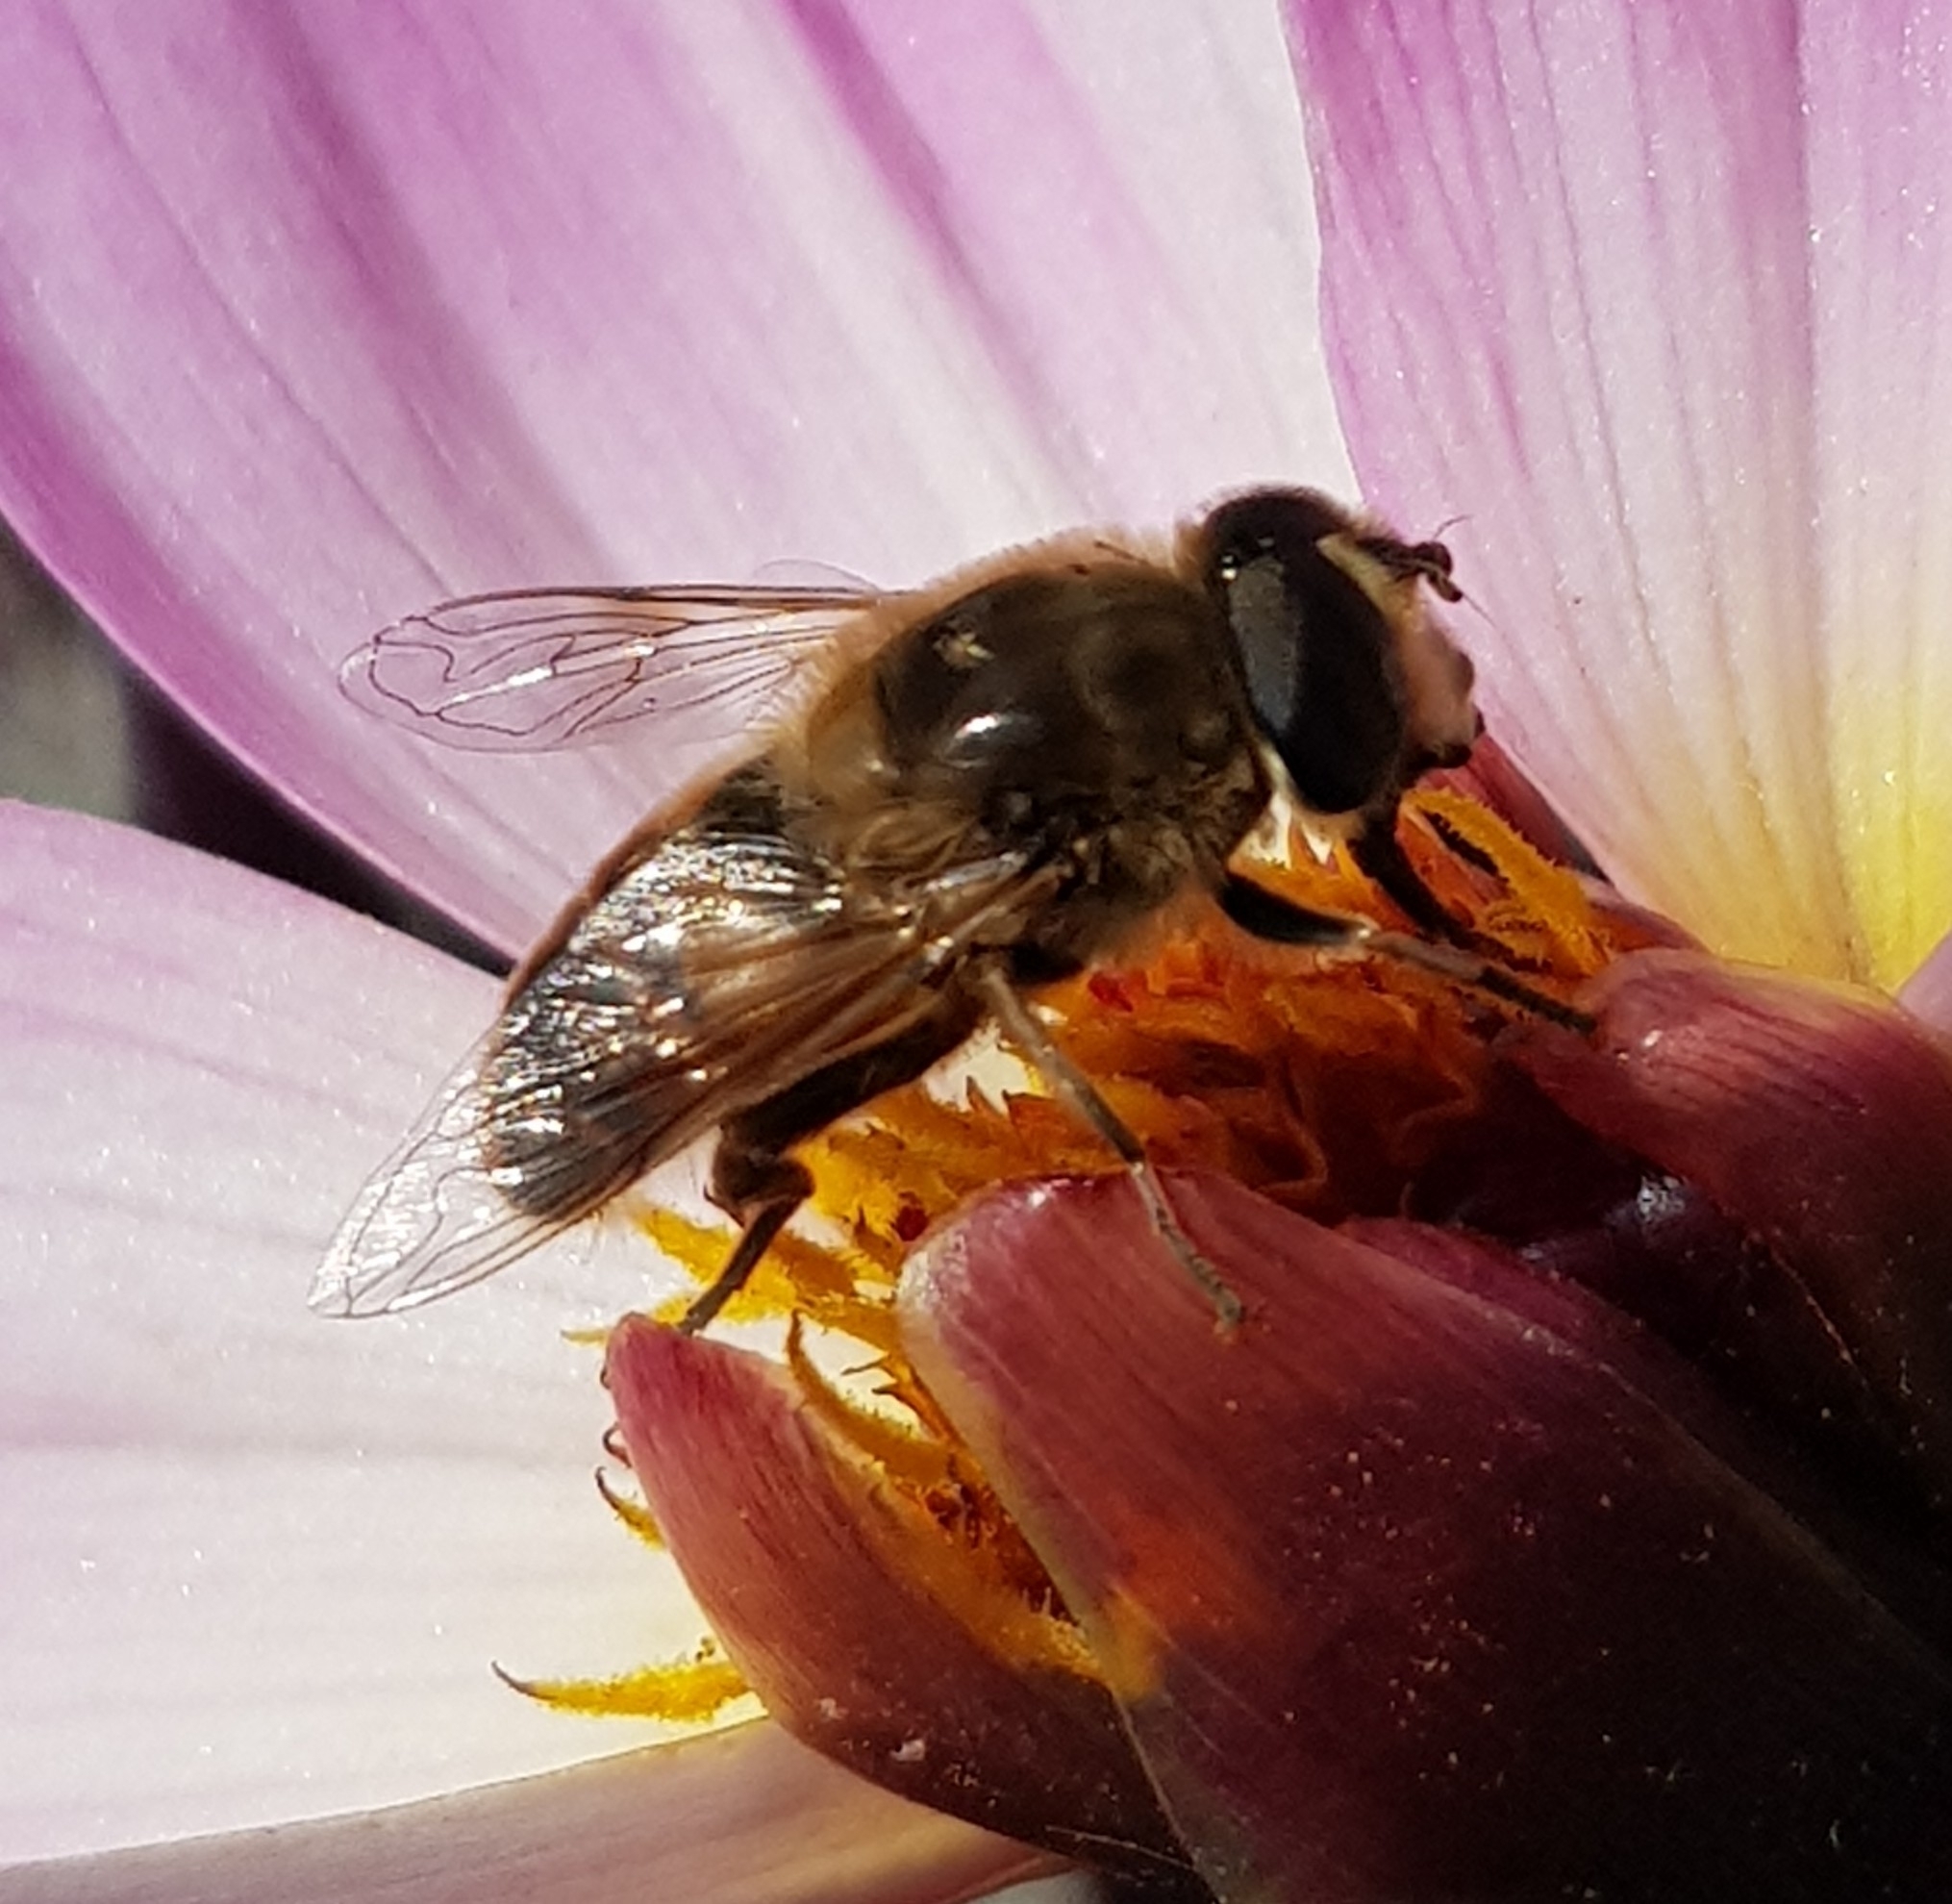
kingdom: Animalia
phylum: Arthropoda
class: Insecta
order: Diptera
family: Syrphidae
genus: Eristalis
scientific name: Eristalis tenax
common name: Drone fly
